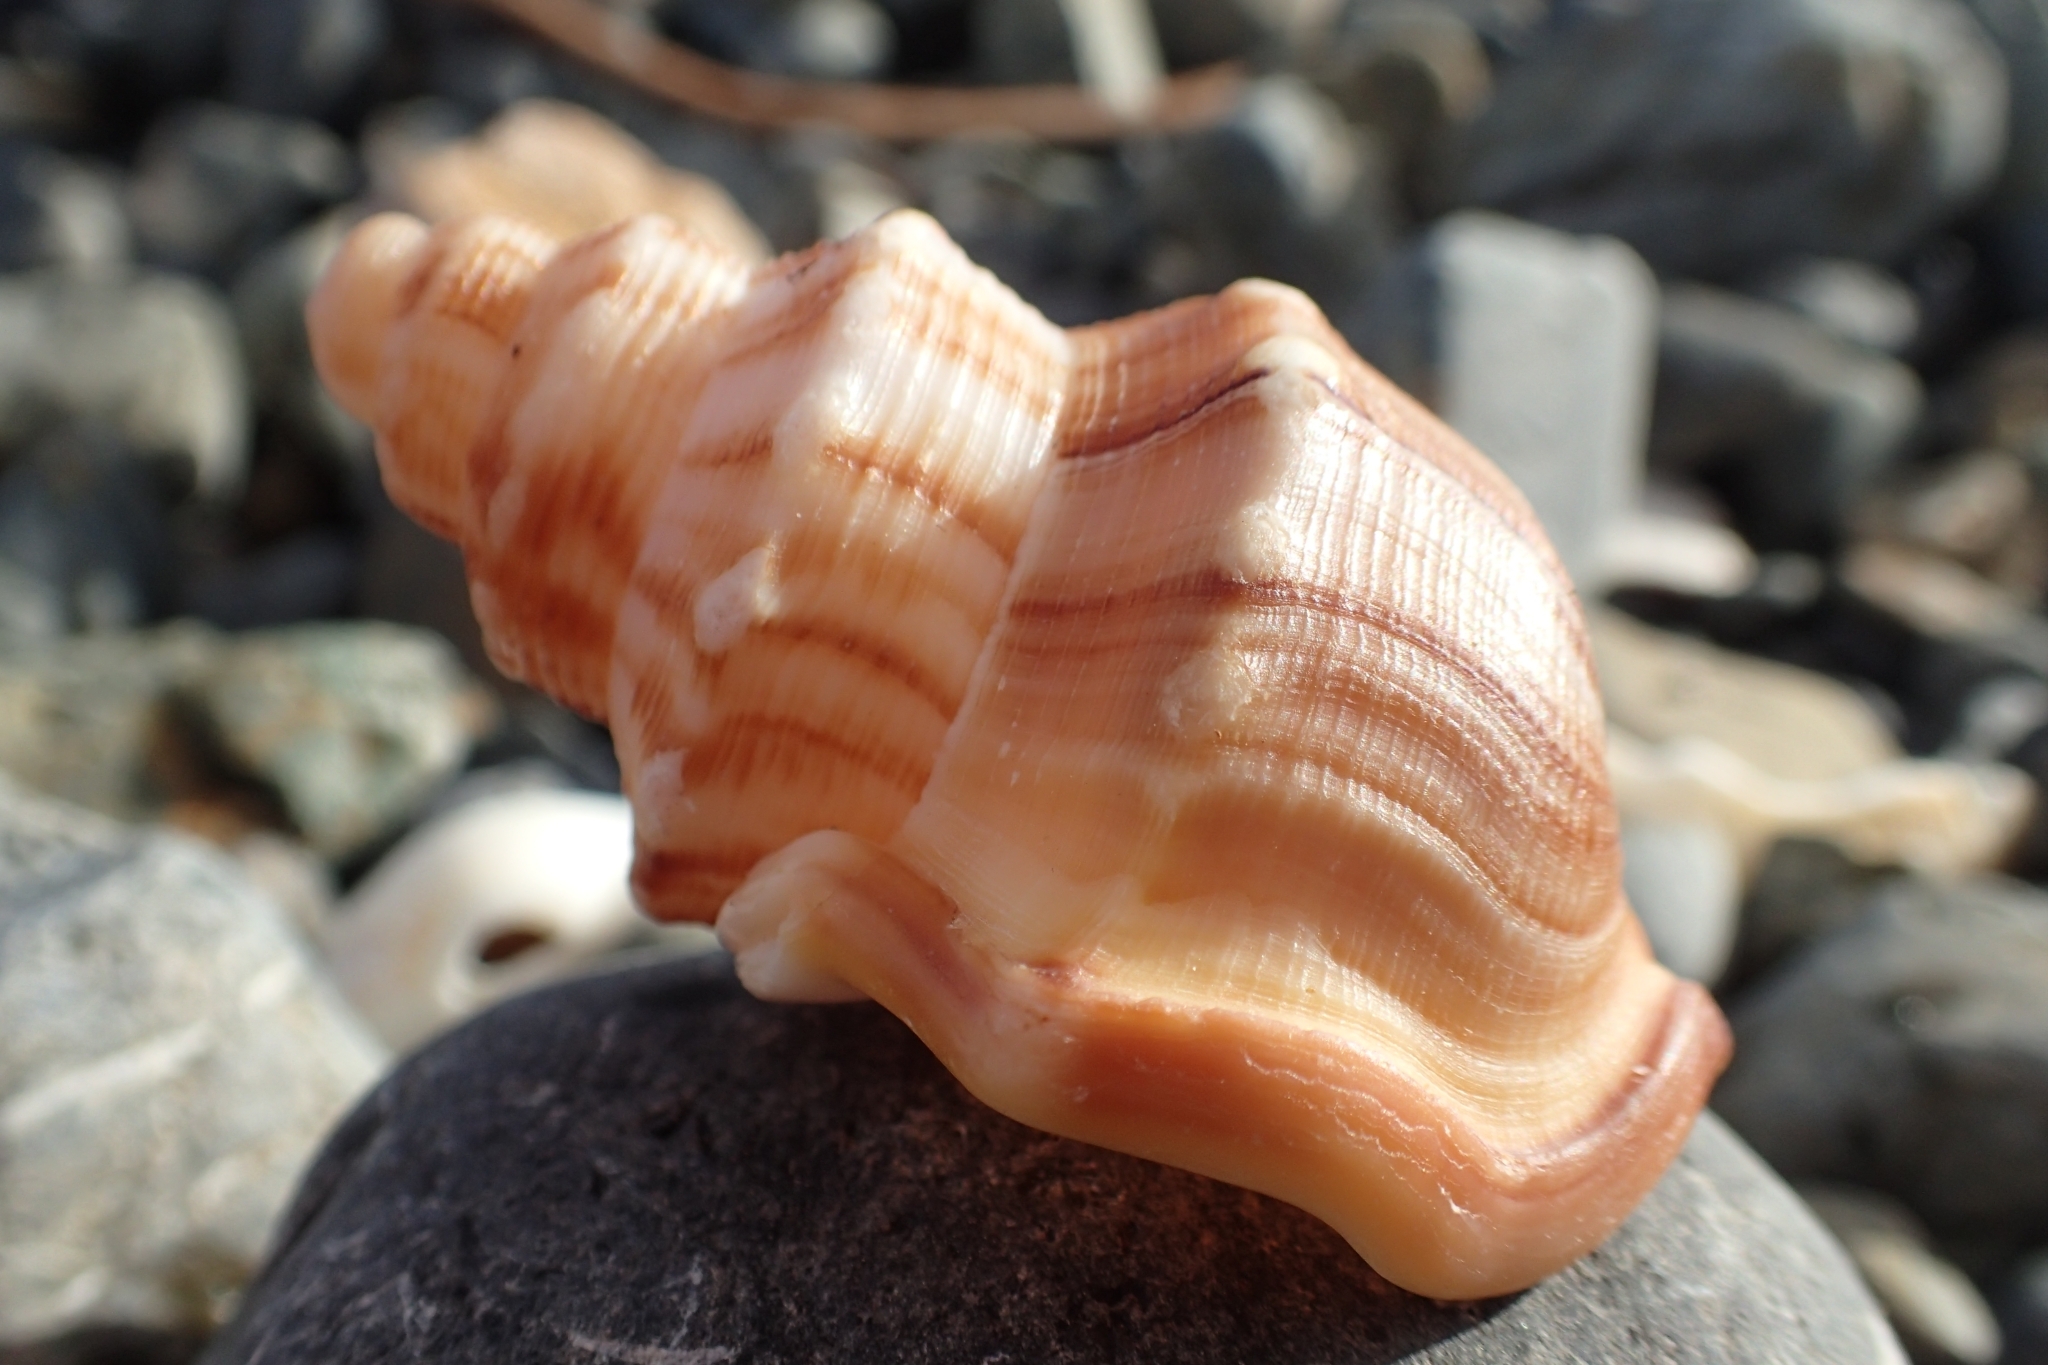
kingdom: Animalia
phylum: Mollusca
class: Gastropoda
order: Littorinimorpha
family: Struthiolariidae
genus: Struthiolaria
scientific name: Struthiolaria papulosa
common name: Large ostrich foot
